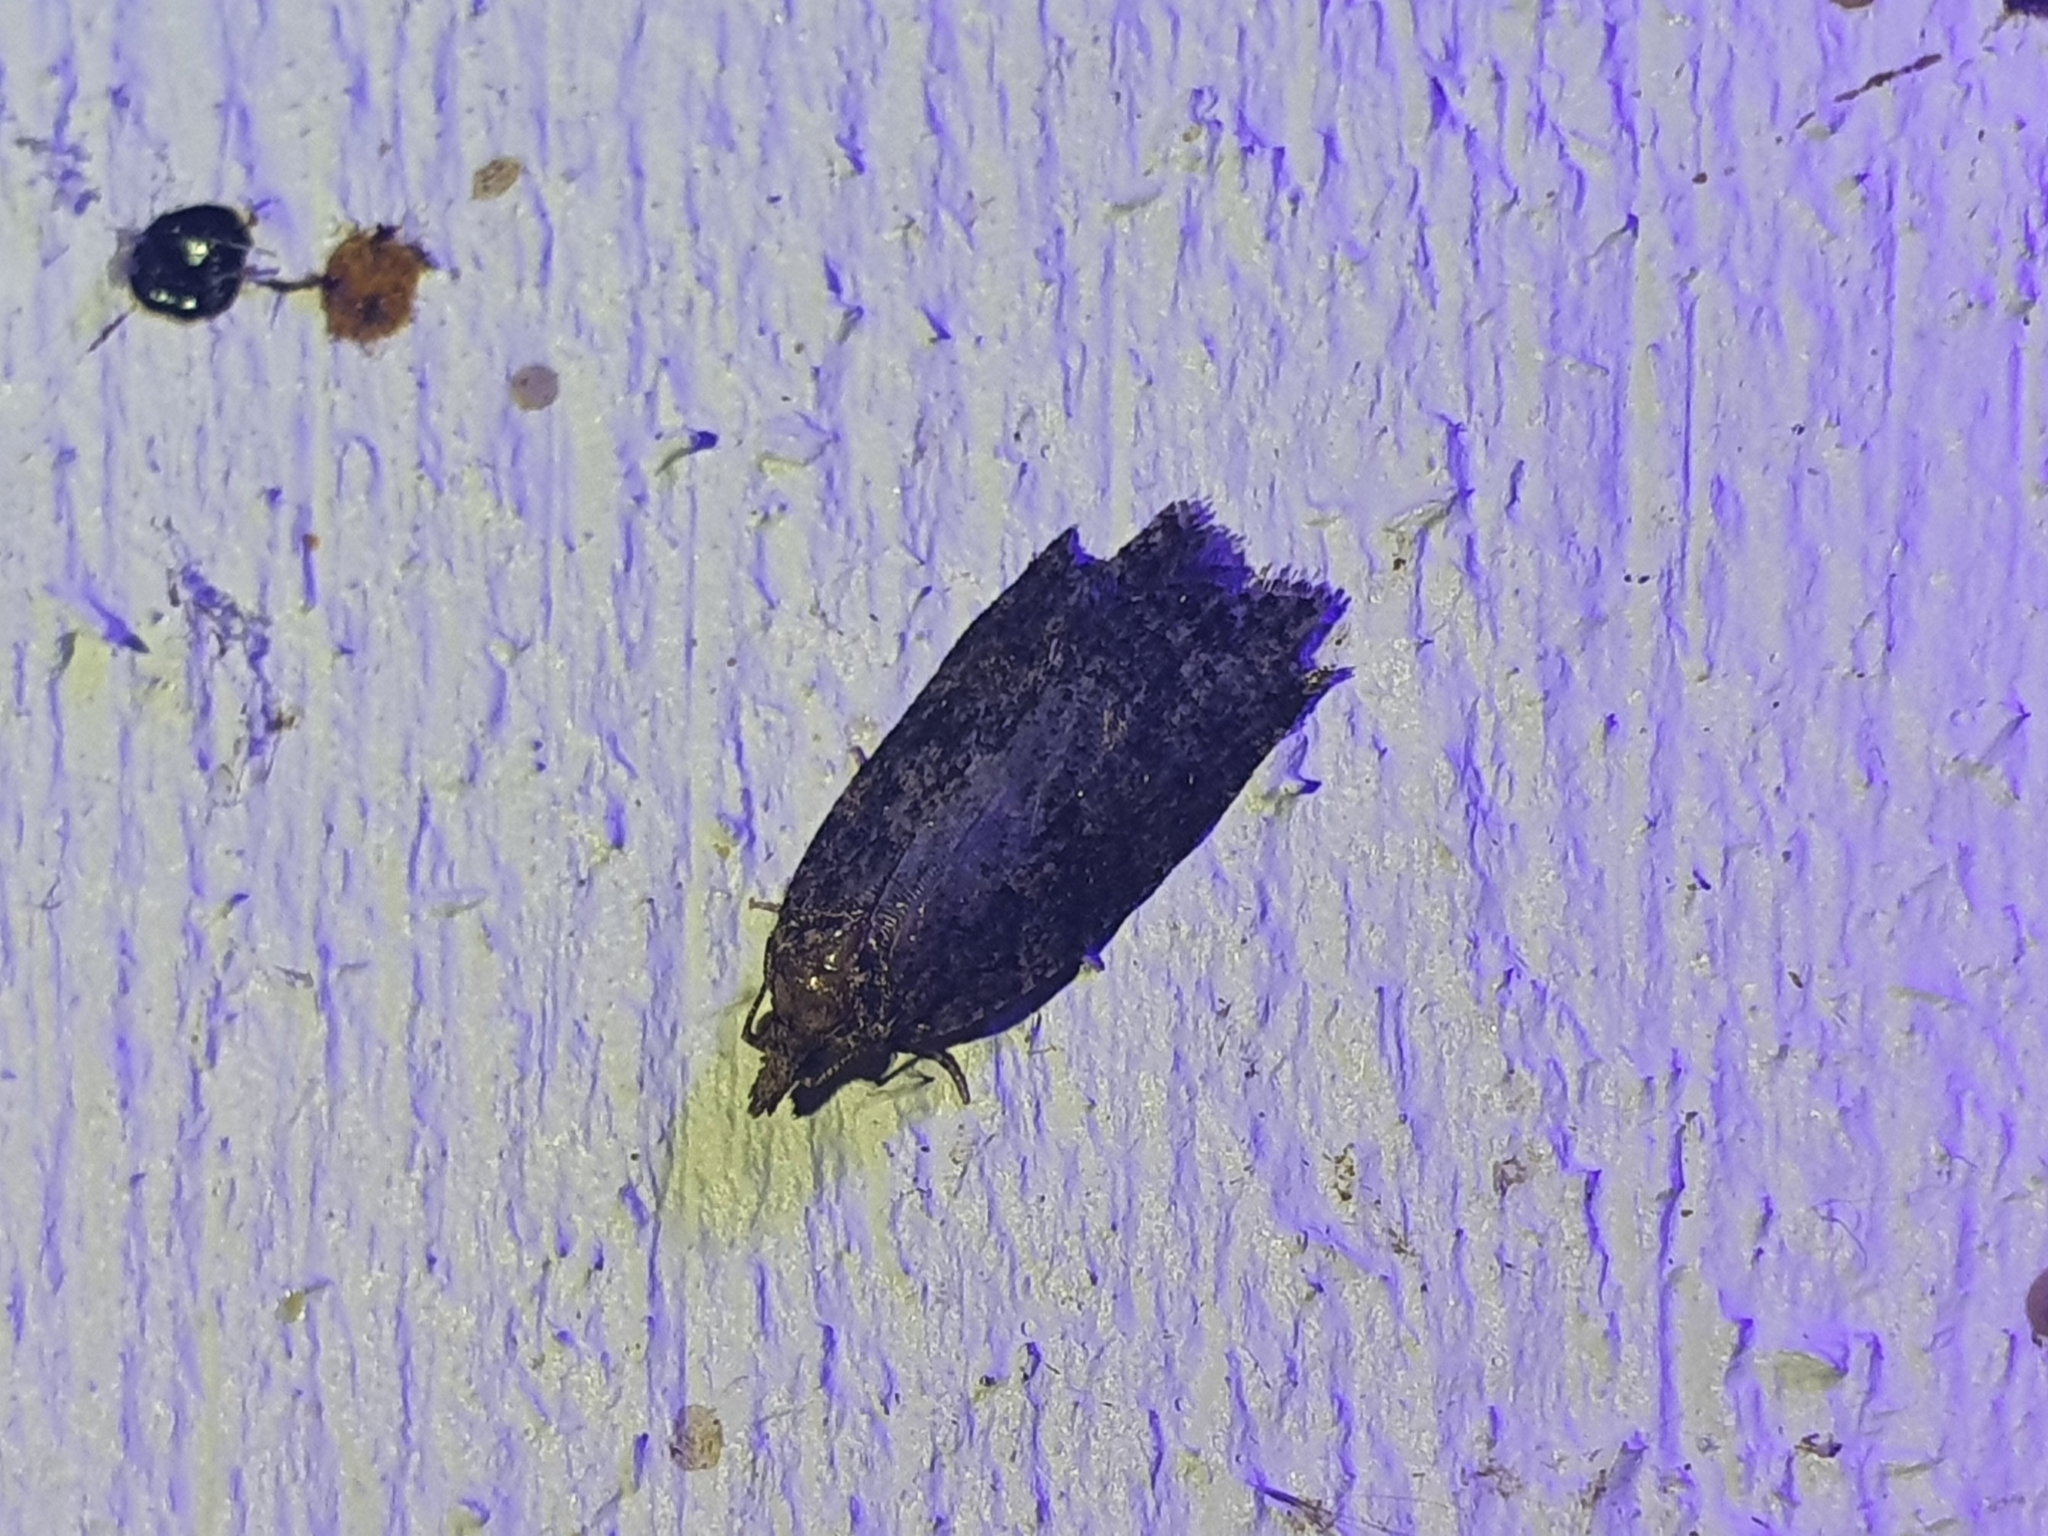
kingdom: Animalia
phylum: Arthropoda
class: Insecta
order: Lepidoptera
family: Tortricidae
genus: Capua
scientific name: Capua intractana
